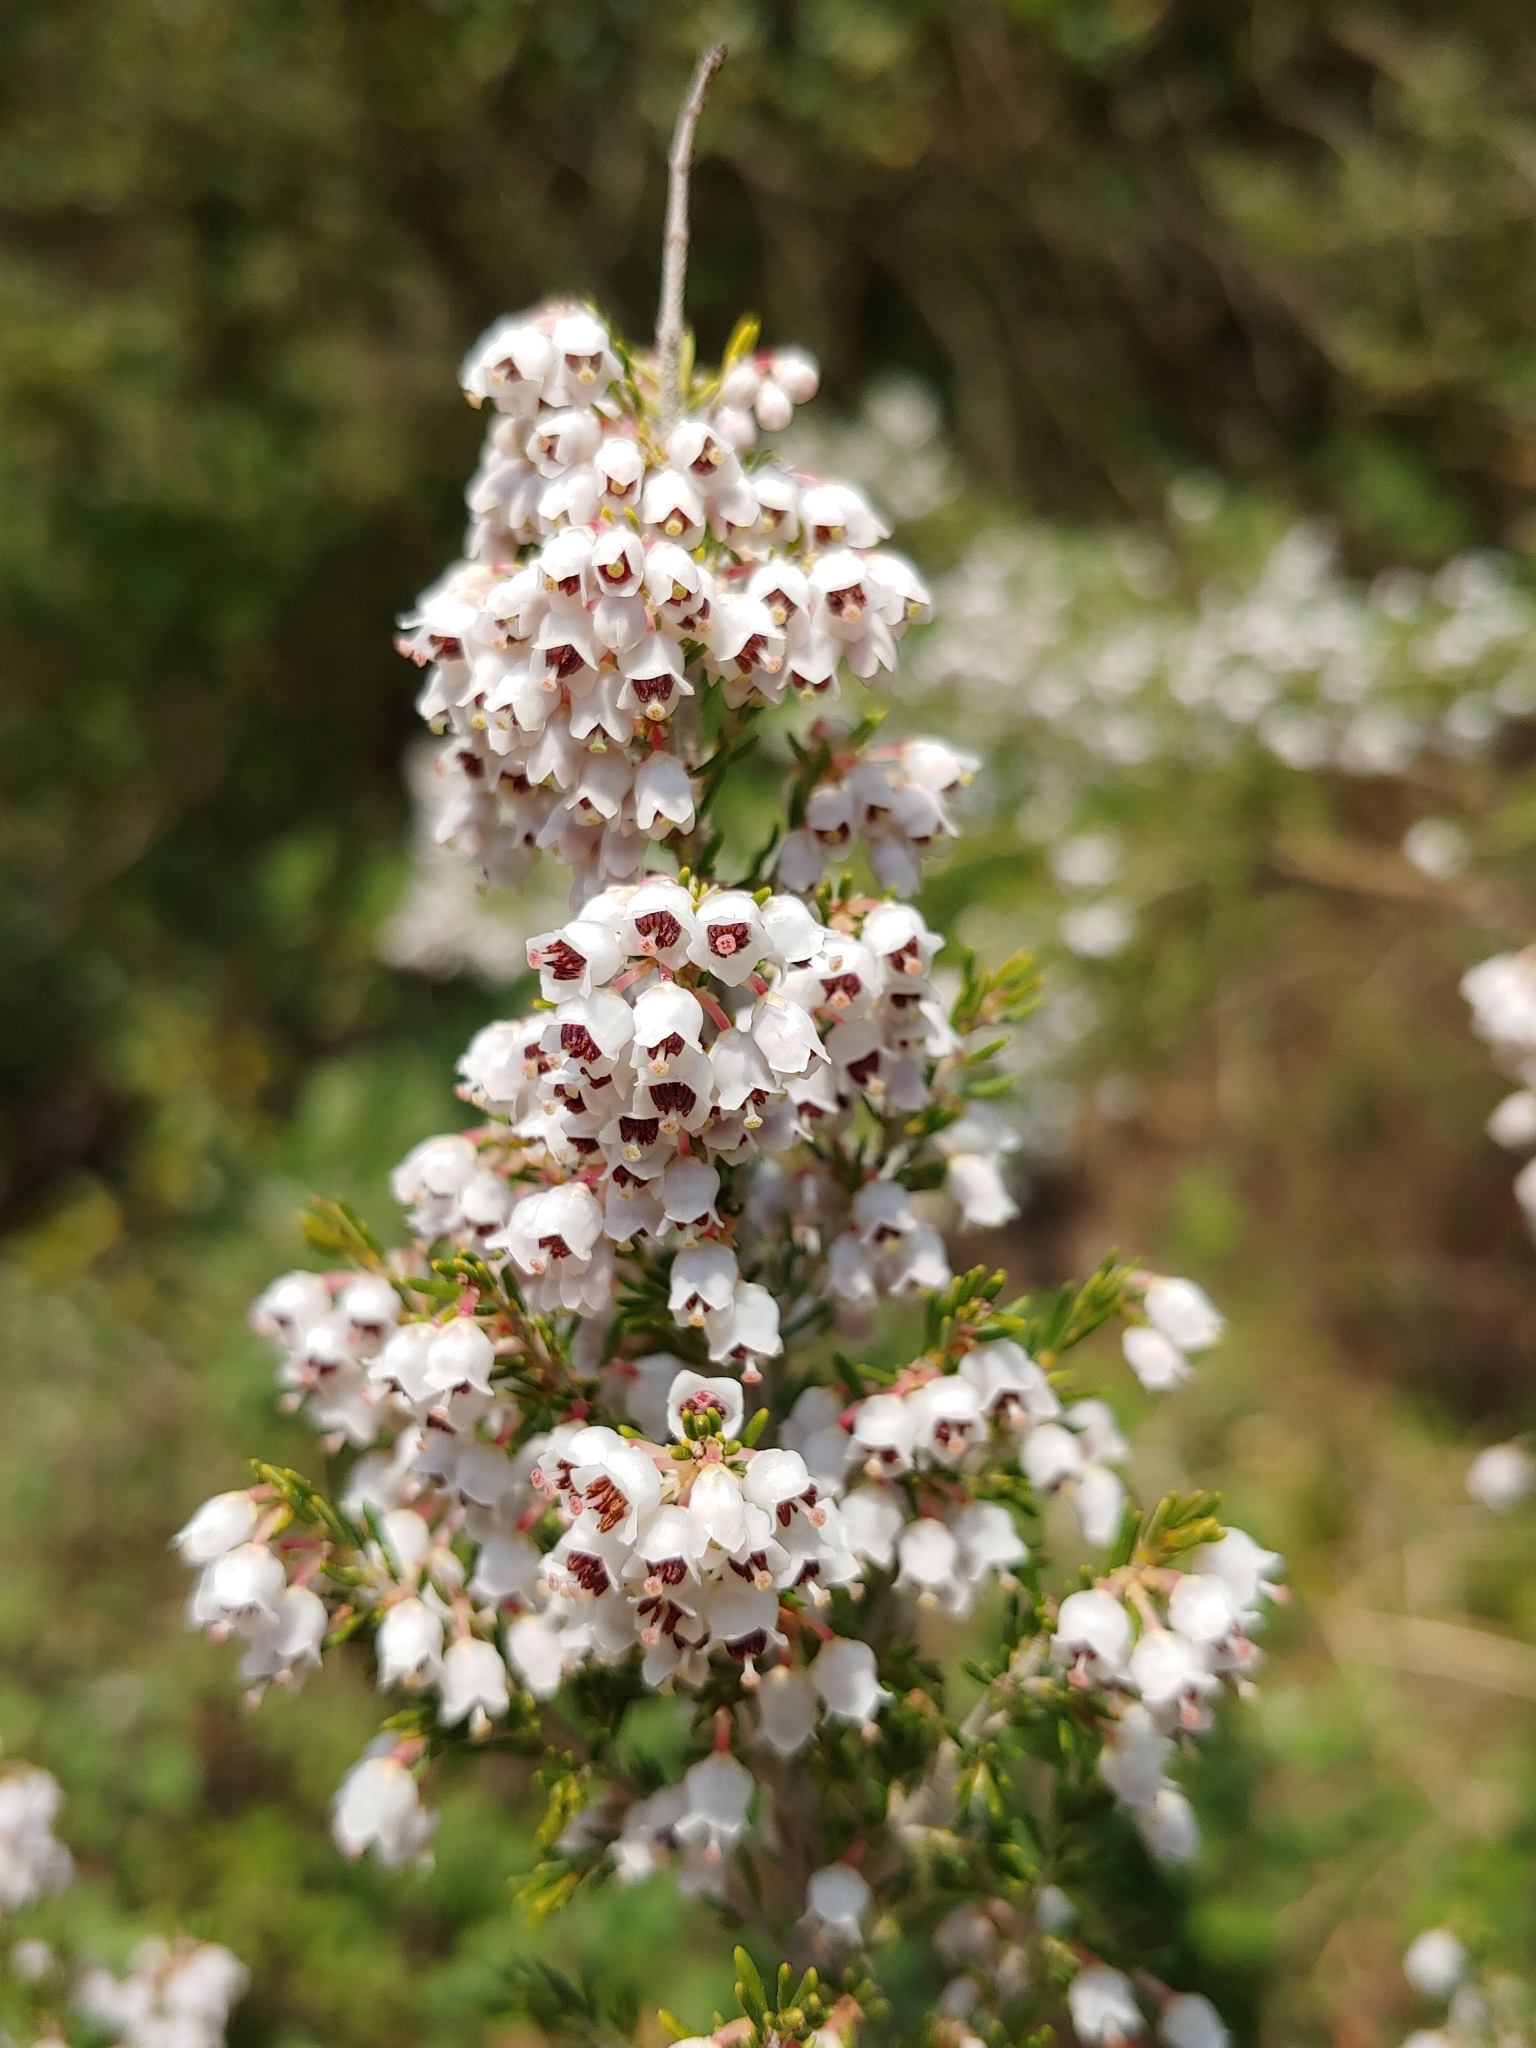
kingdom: Plantae
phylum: Tracheophyta
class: Magnoliopsida
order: Ericales
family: Ericaceae
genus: Erica
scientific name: Erica arborea
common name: Tree heath
